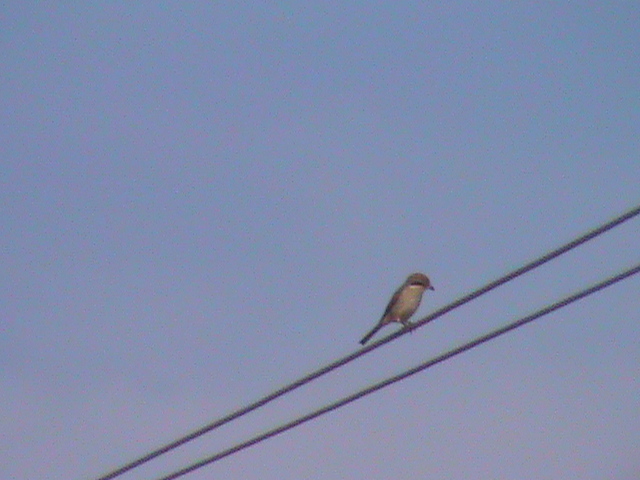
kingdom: Animalia
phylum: Chordata
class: Aves
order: Passeriformes
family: Laniidae
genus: Lanius
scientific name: Lanius cristatus
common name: Brown shrike
